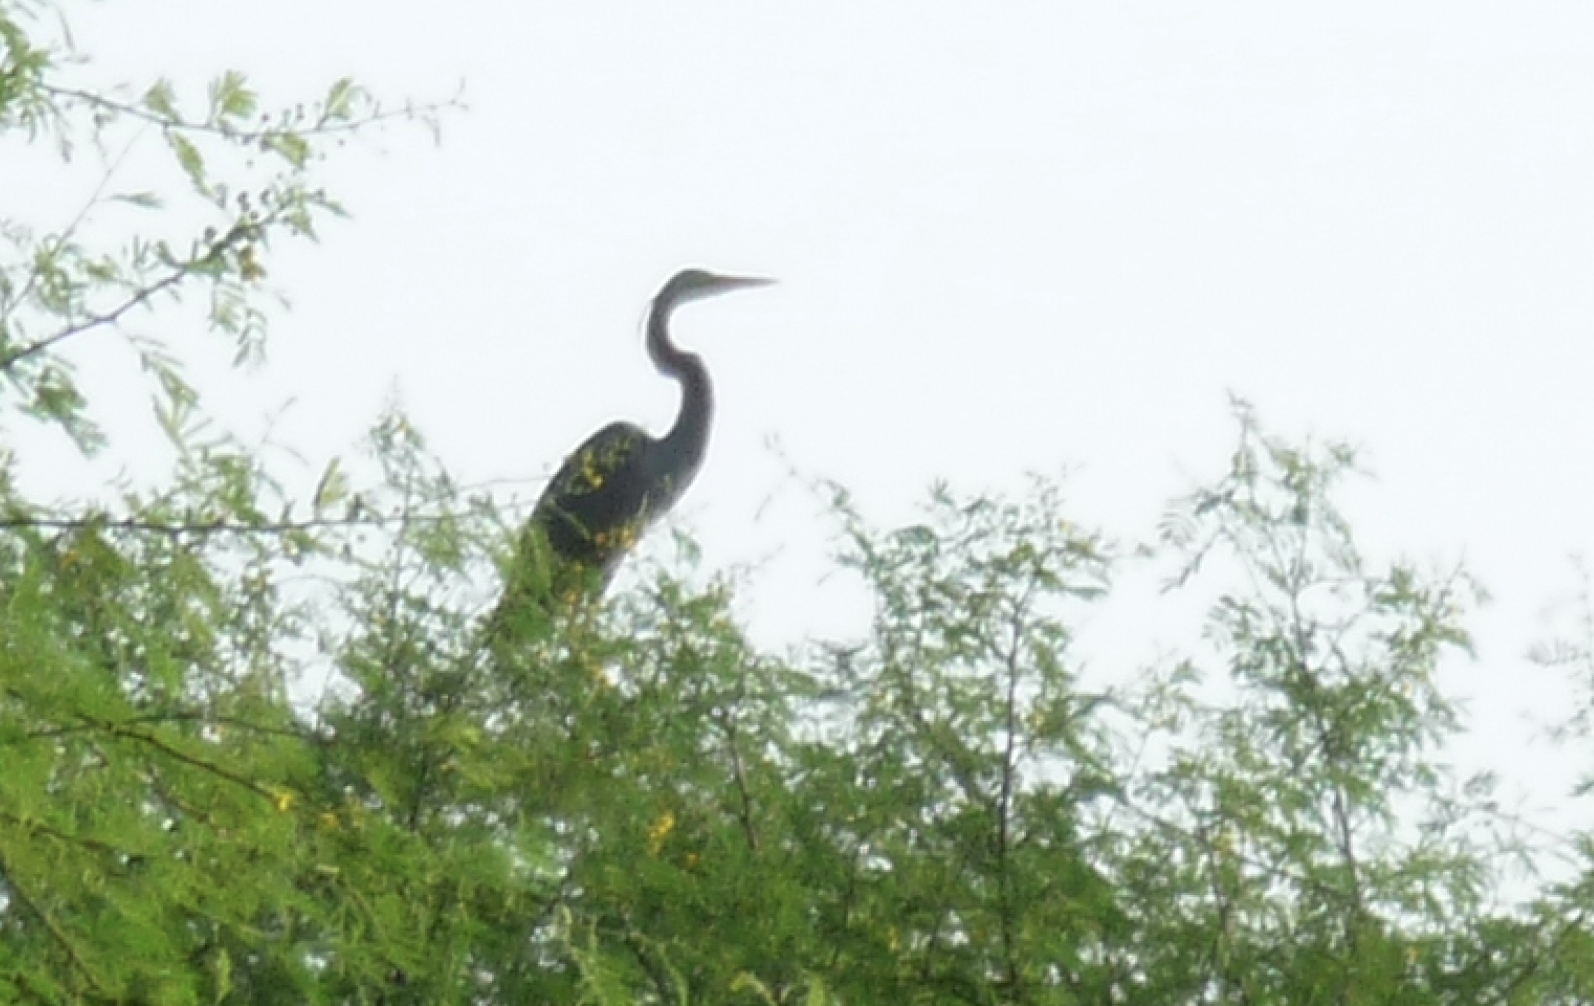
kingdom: Animalia
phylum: Chordata
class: Aves
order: Pelecaniformes
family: Ardeidae
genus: Ardea
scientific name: Ardea purpurea
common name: Purple heron
